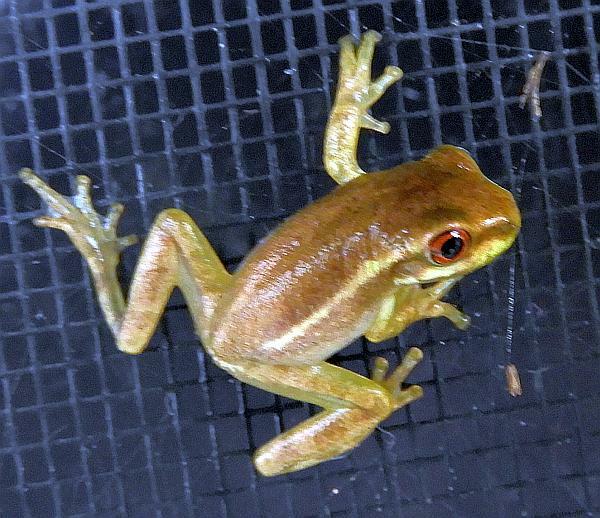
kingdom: Animalia
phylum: Chordata
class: Amphibia
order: Anura
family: Hylidae
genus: Osteopilus
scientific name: Osteopilus septentrionalis
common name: Cuban treefrog
